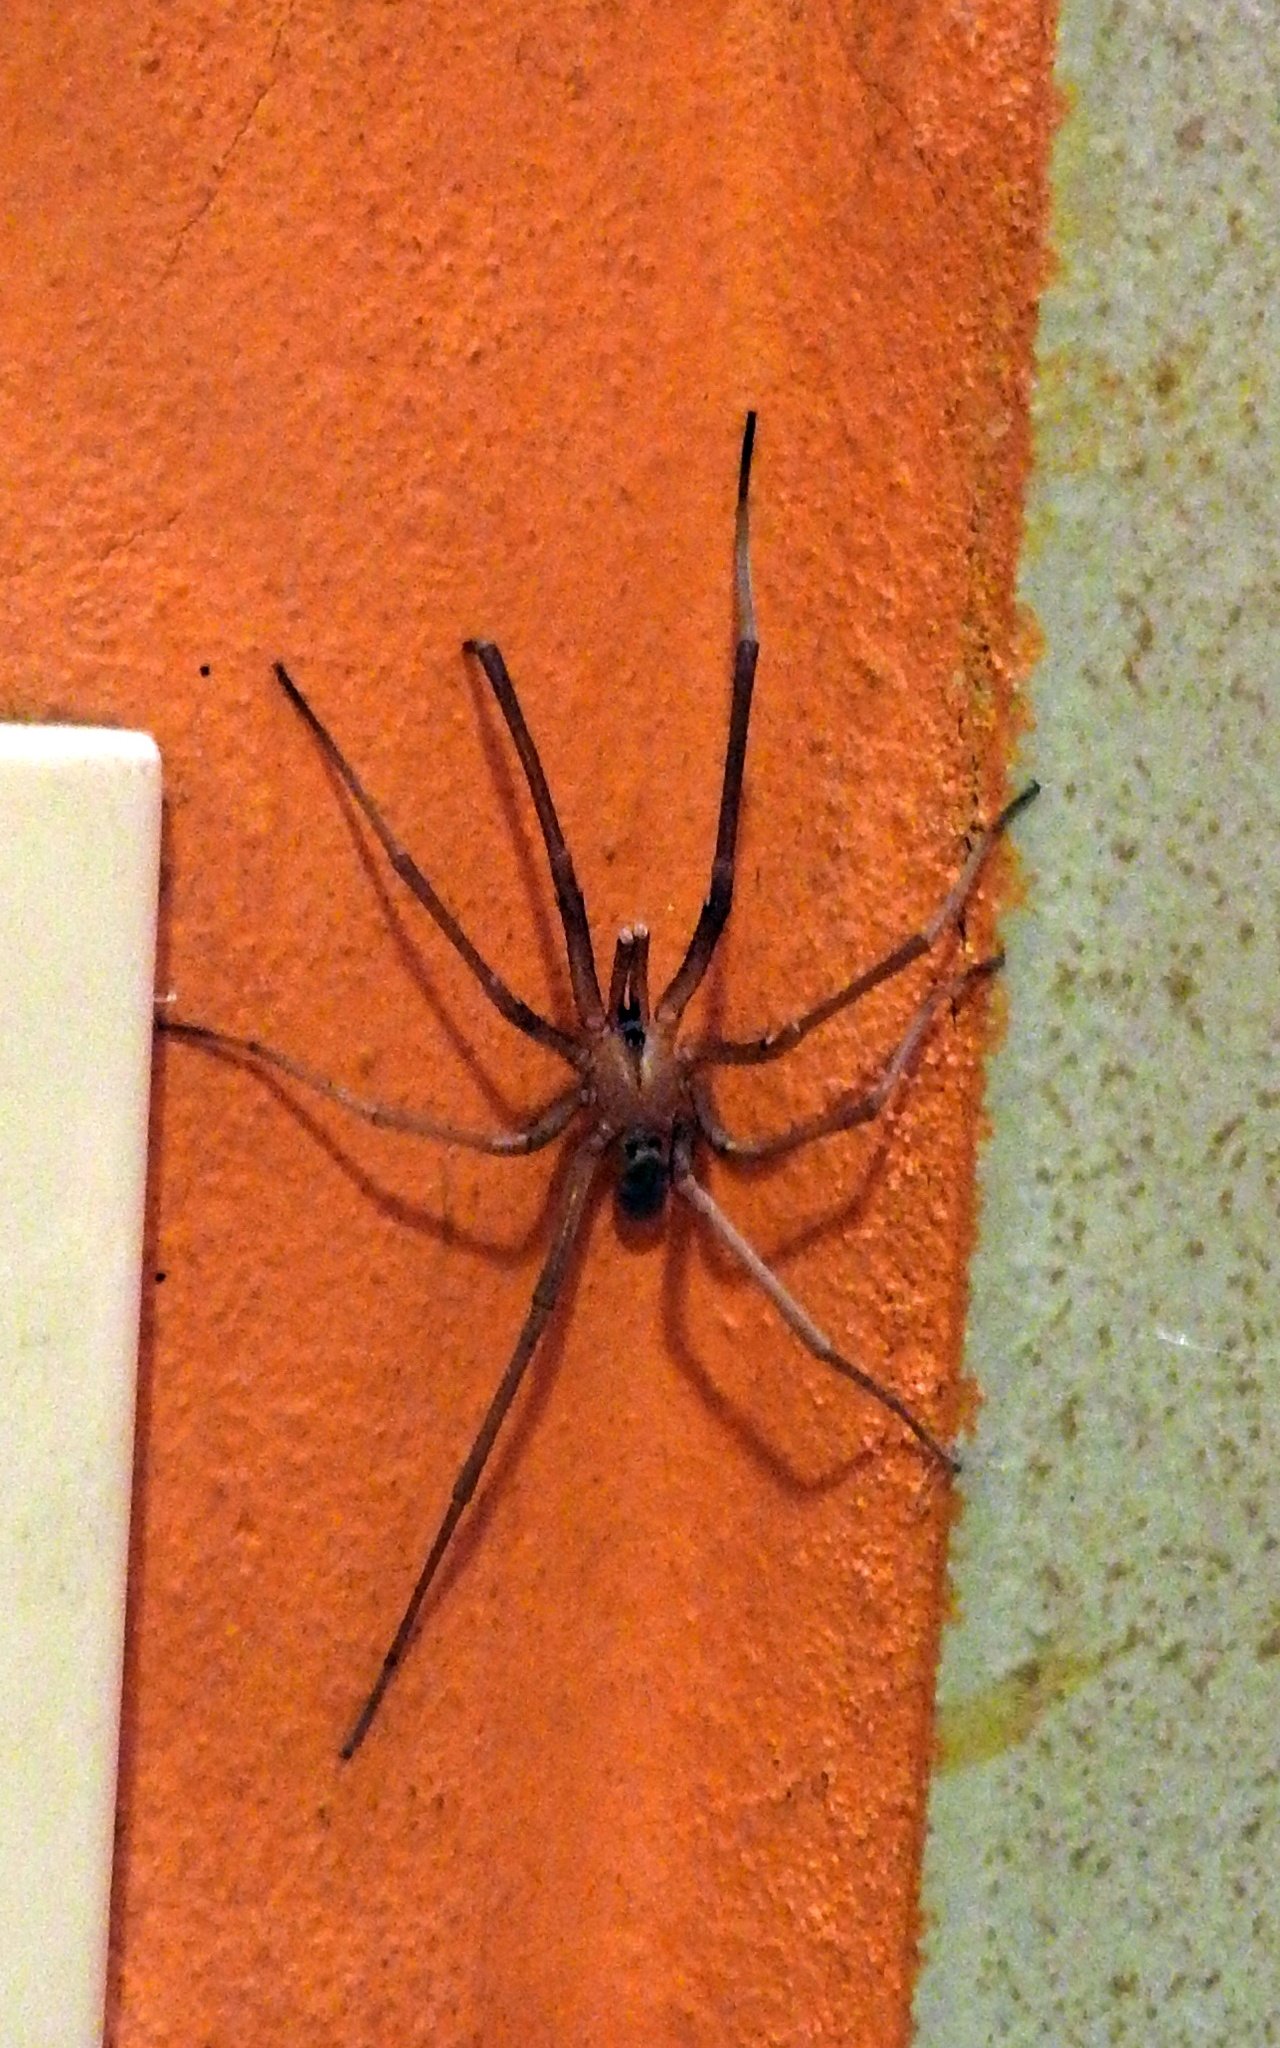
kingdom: Animalia
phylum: Arthropoda
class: Arachnida
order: Araneae
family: Filistatidae
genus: Kukulcania
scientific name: Kukulcania hibernalis
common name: Crevice weaver
